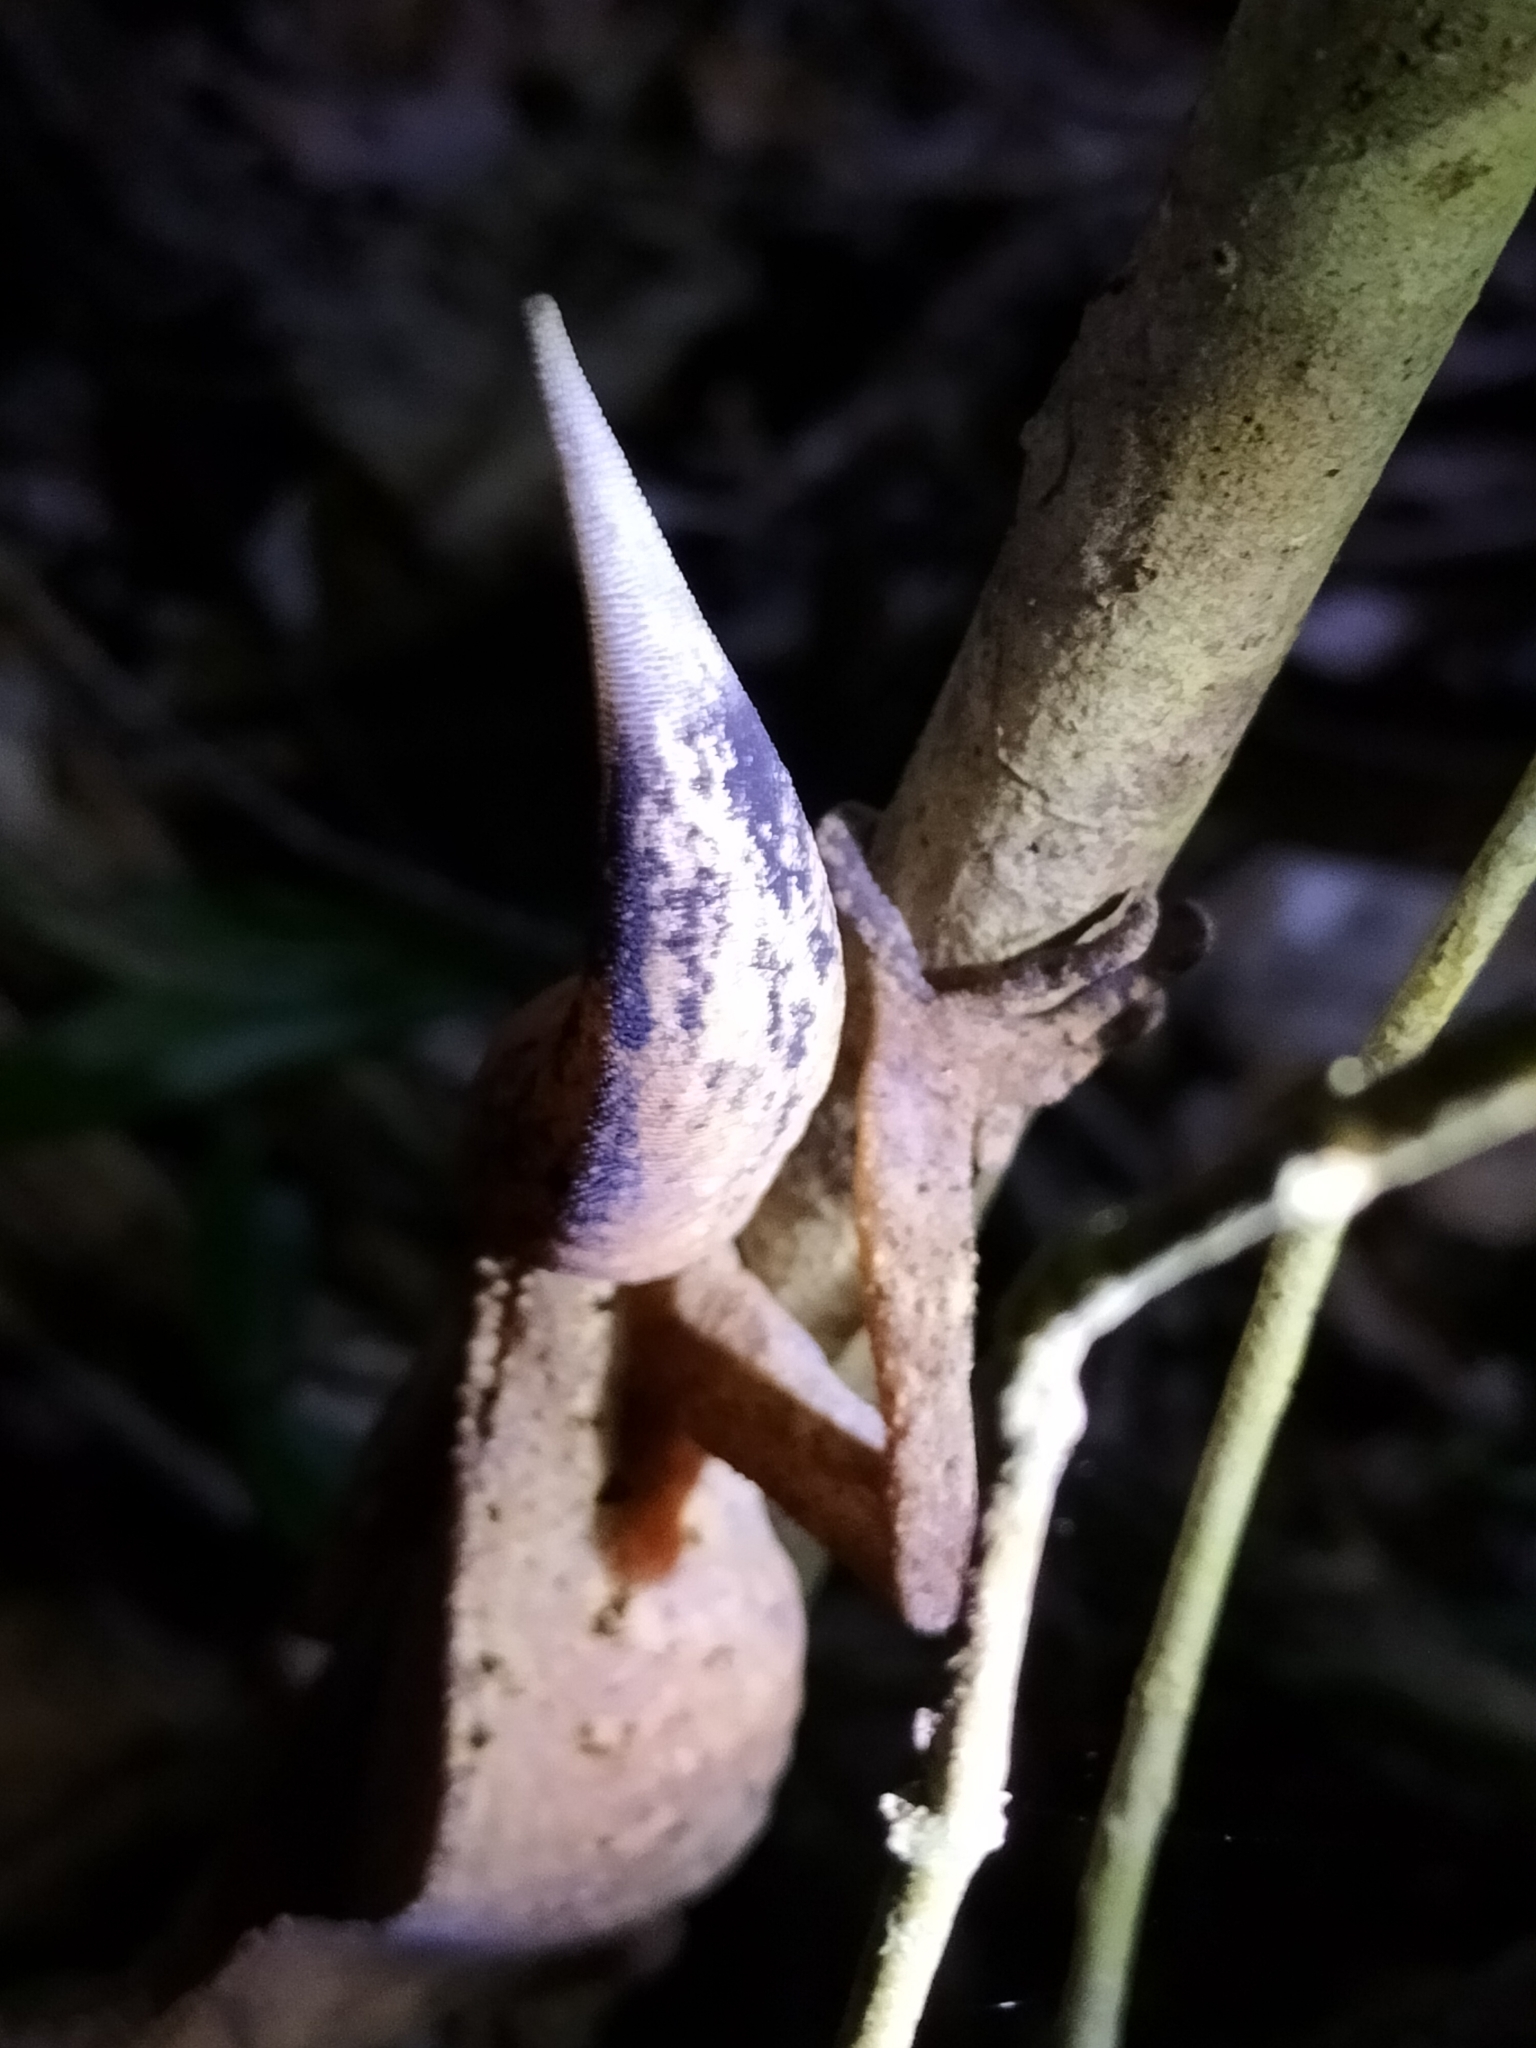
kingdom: Animalia
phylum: Chordata
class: Squamata
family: Carphodactylidae
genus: Carphodactylus
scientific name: Carphodactylus laevis
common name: Chameleon gecko
